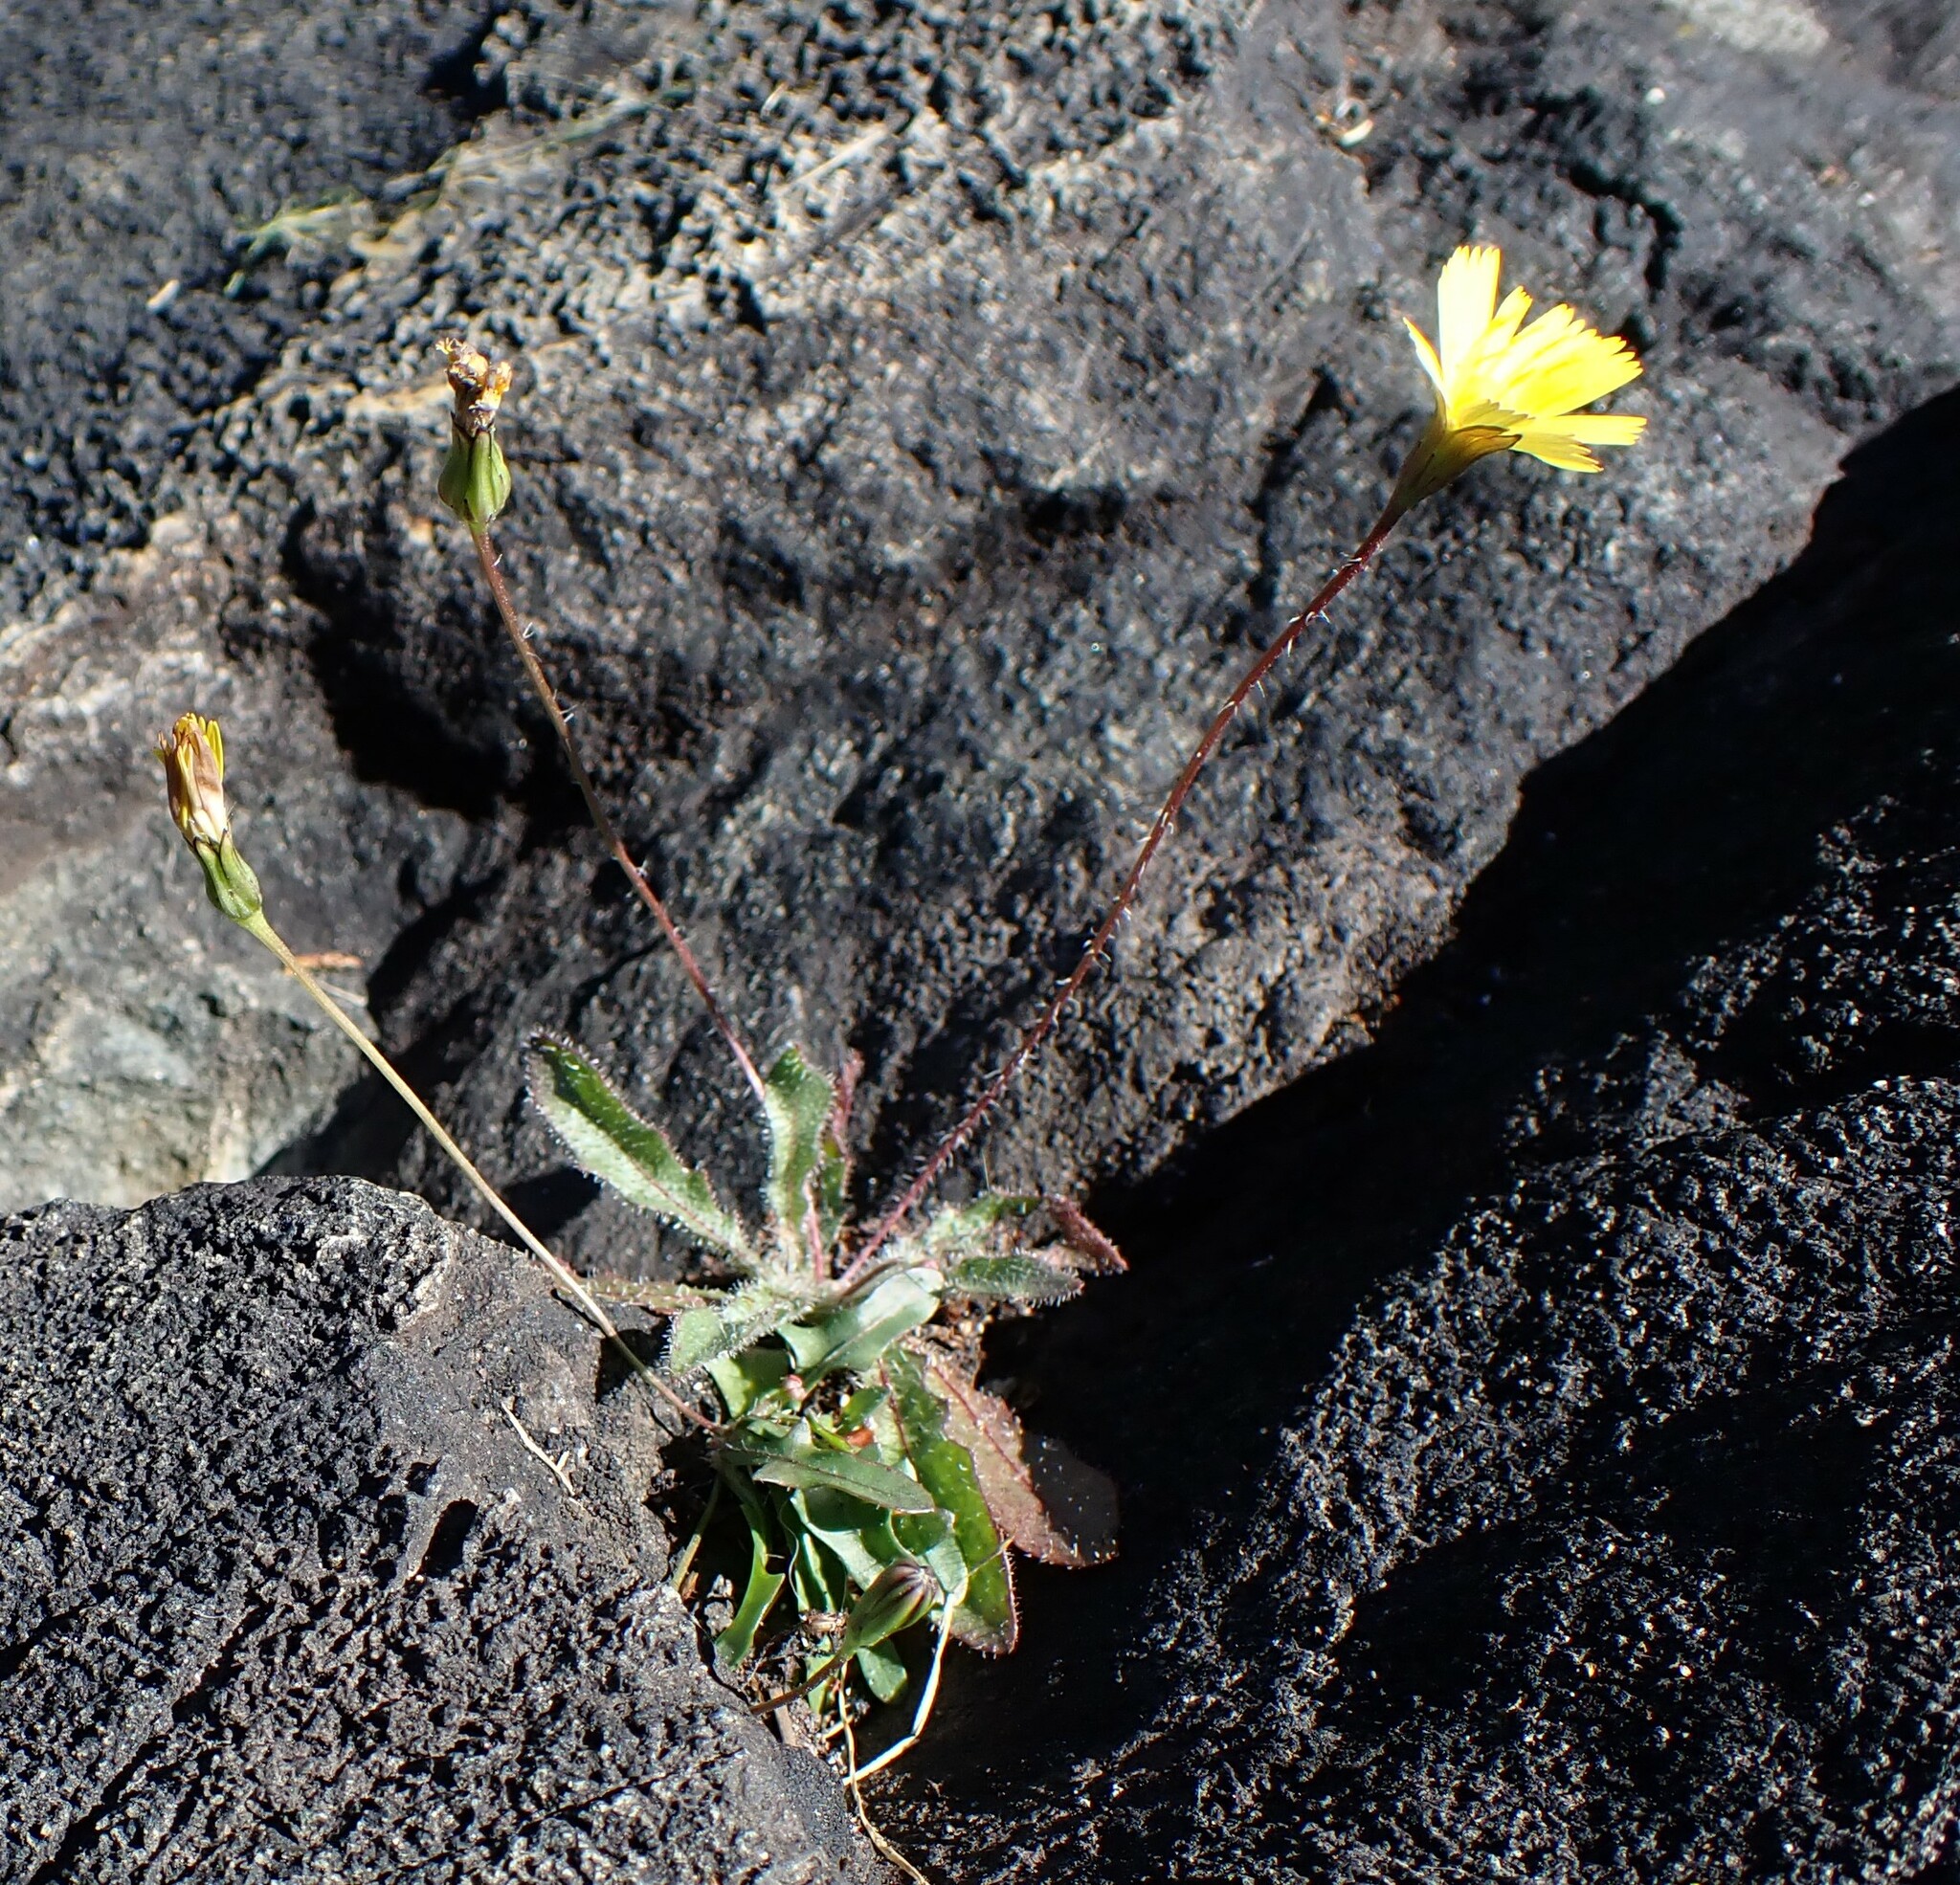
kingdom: Plantae
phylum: Tracheophyta
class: Magnoliopsida
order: Asterales
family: Asteraceae
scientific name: Asteraceae
